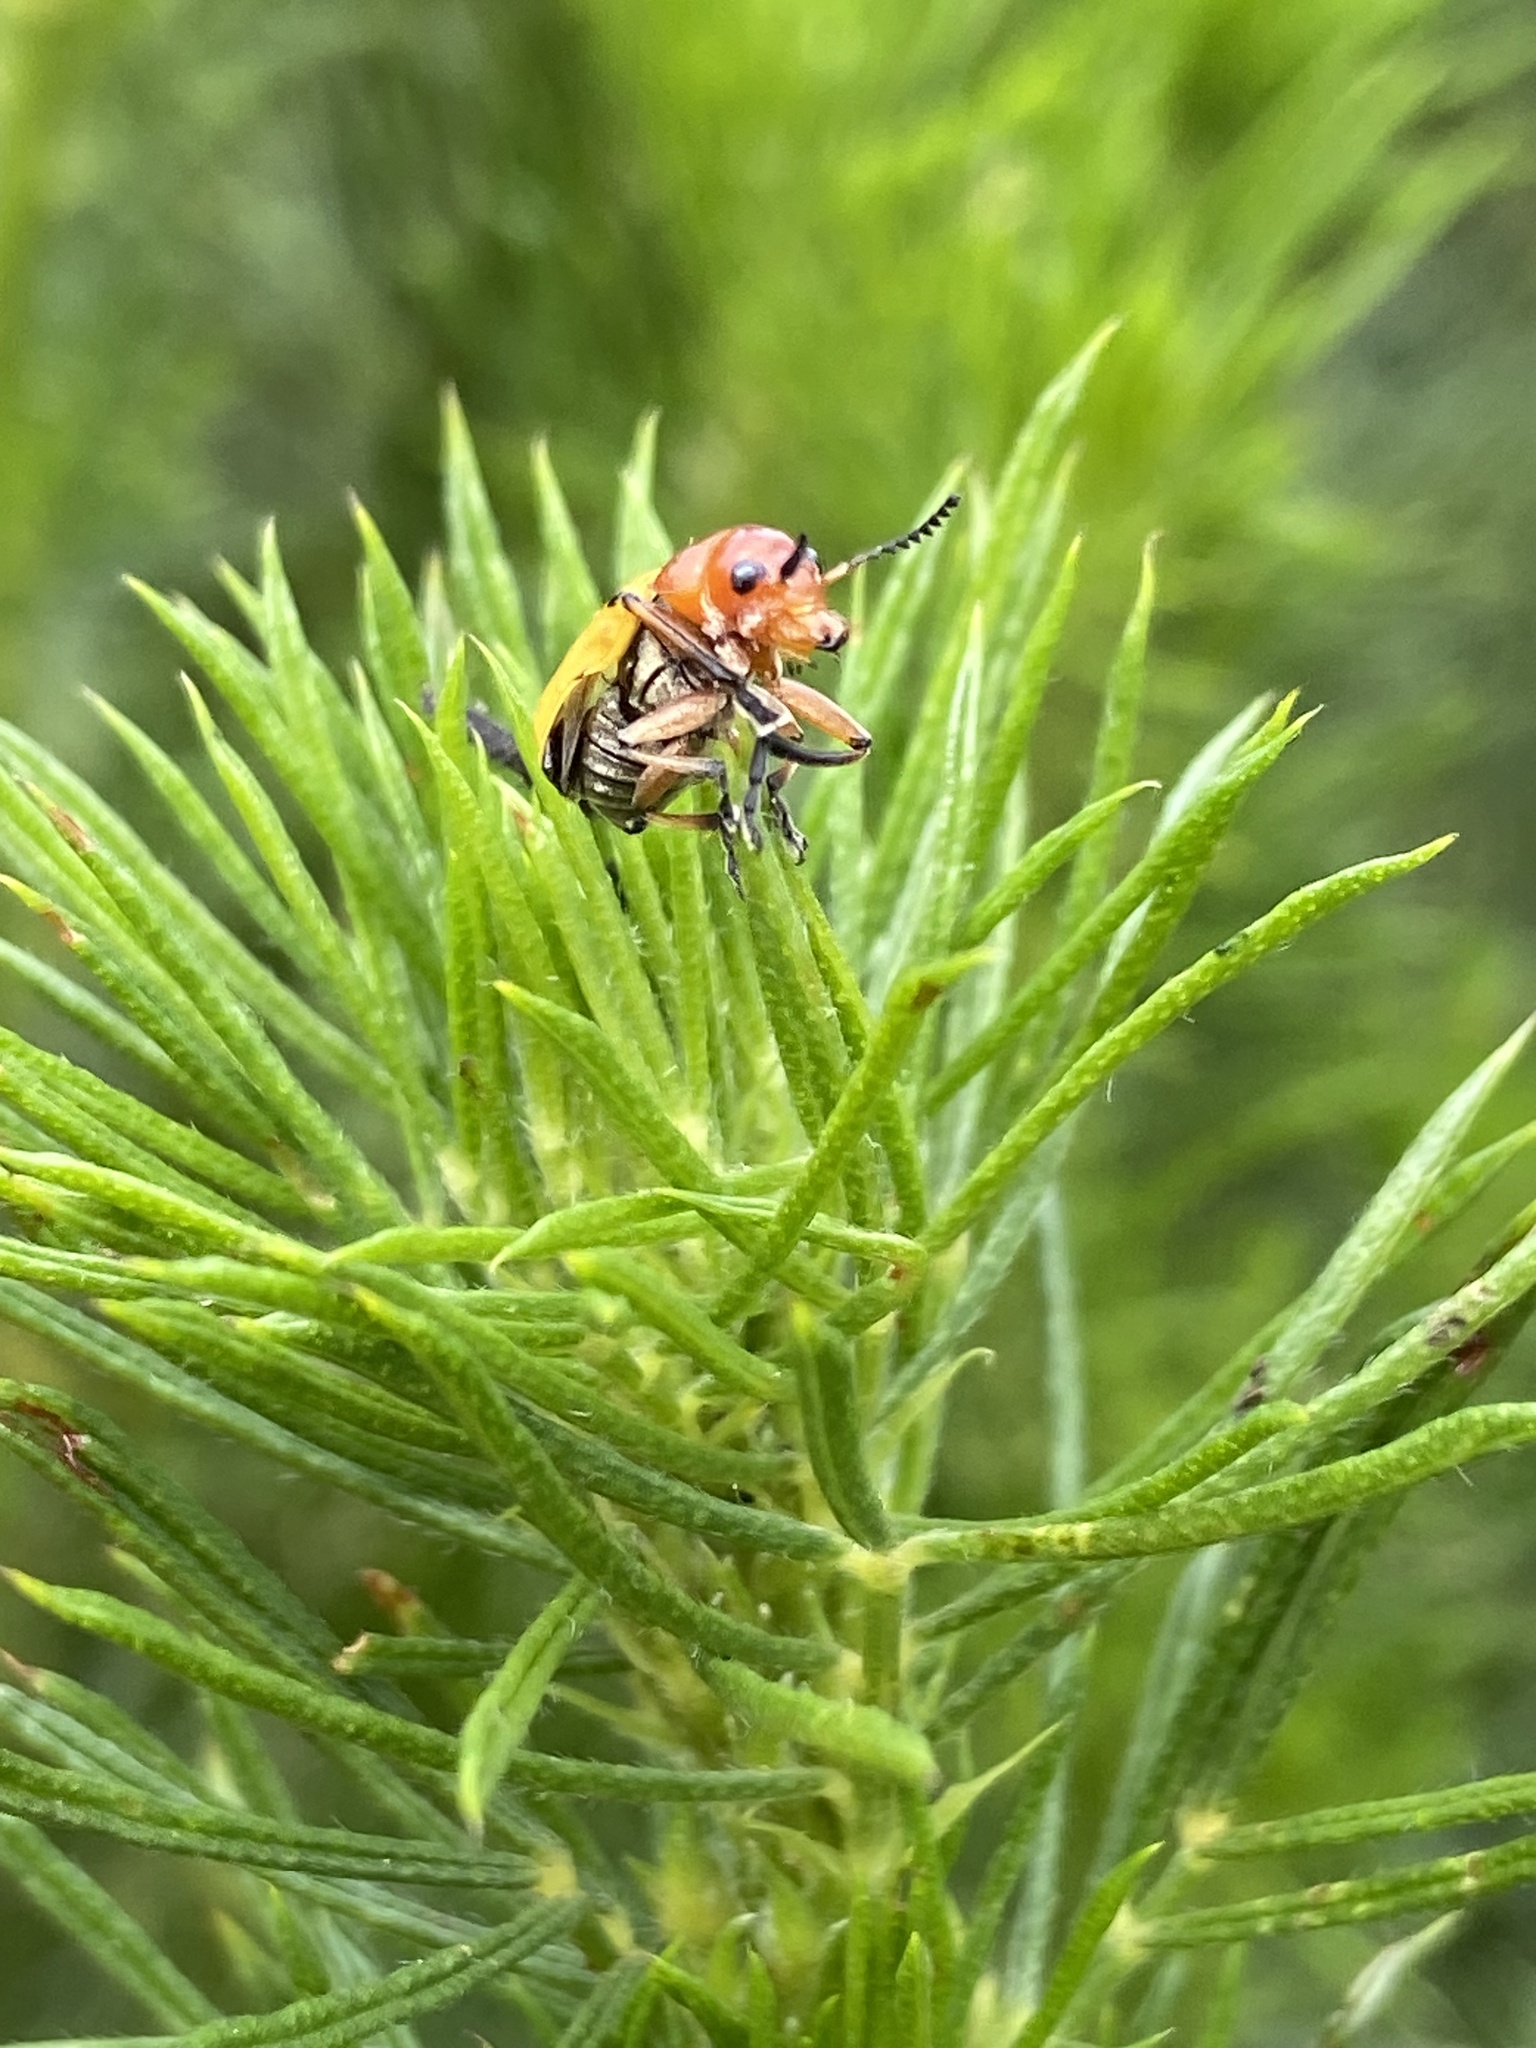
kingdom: Animalia
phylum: Arthropoda
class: Insecta
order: Coleoptera
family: Chrysomelidae
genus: Antipus
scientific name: Antipus rufus
